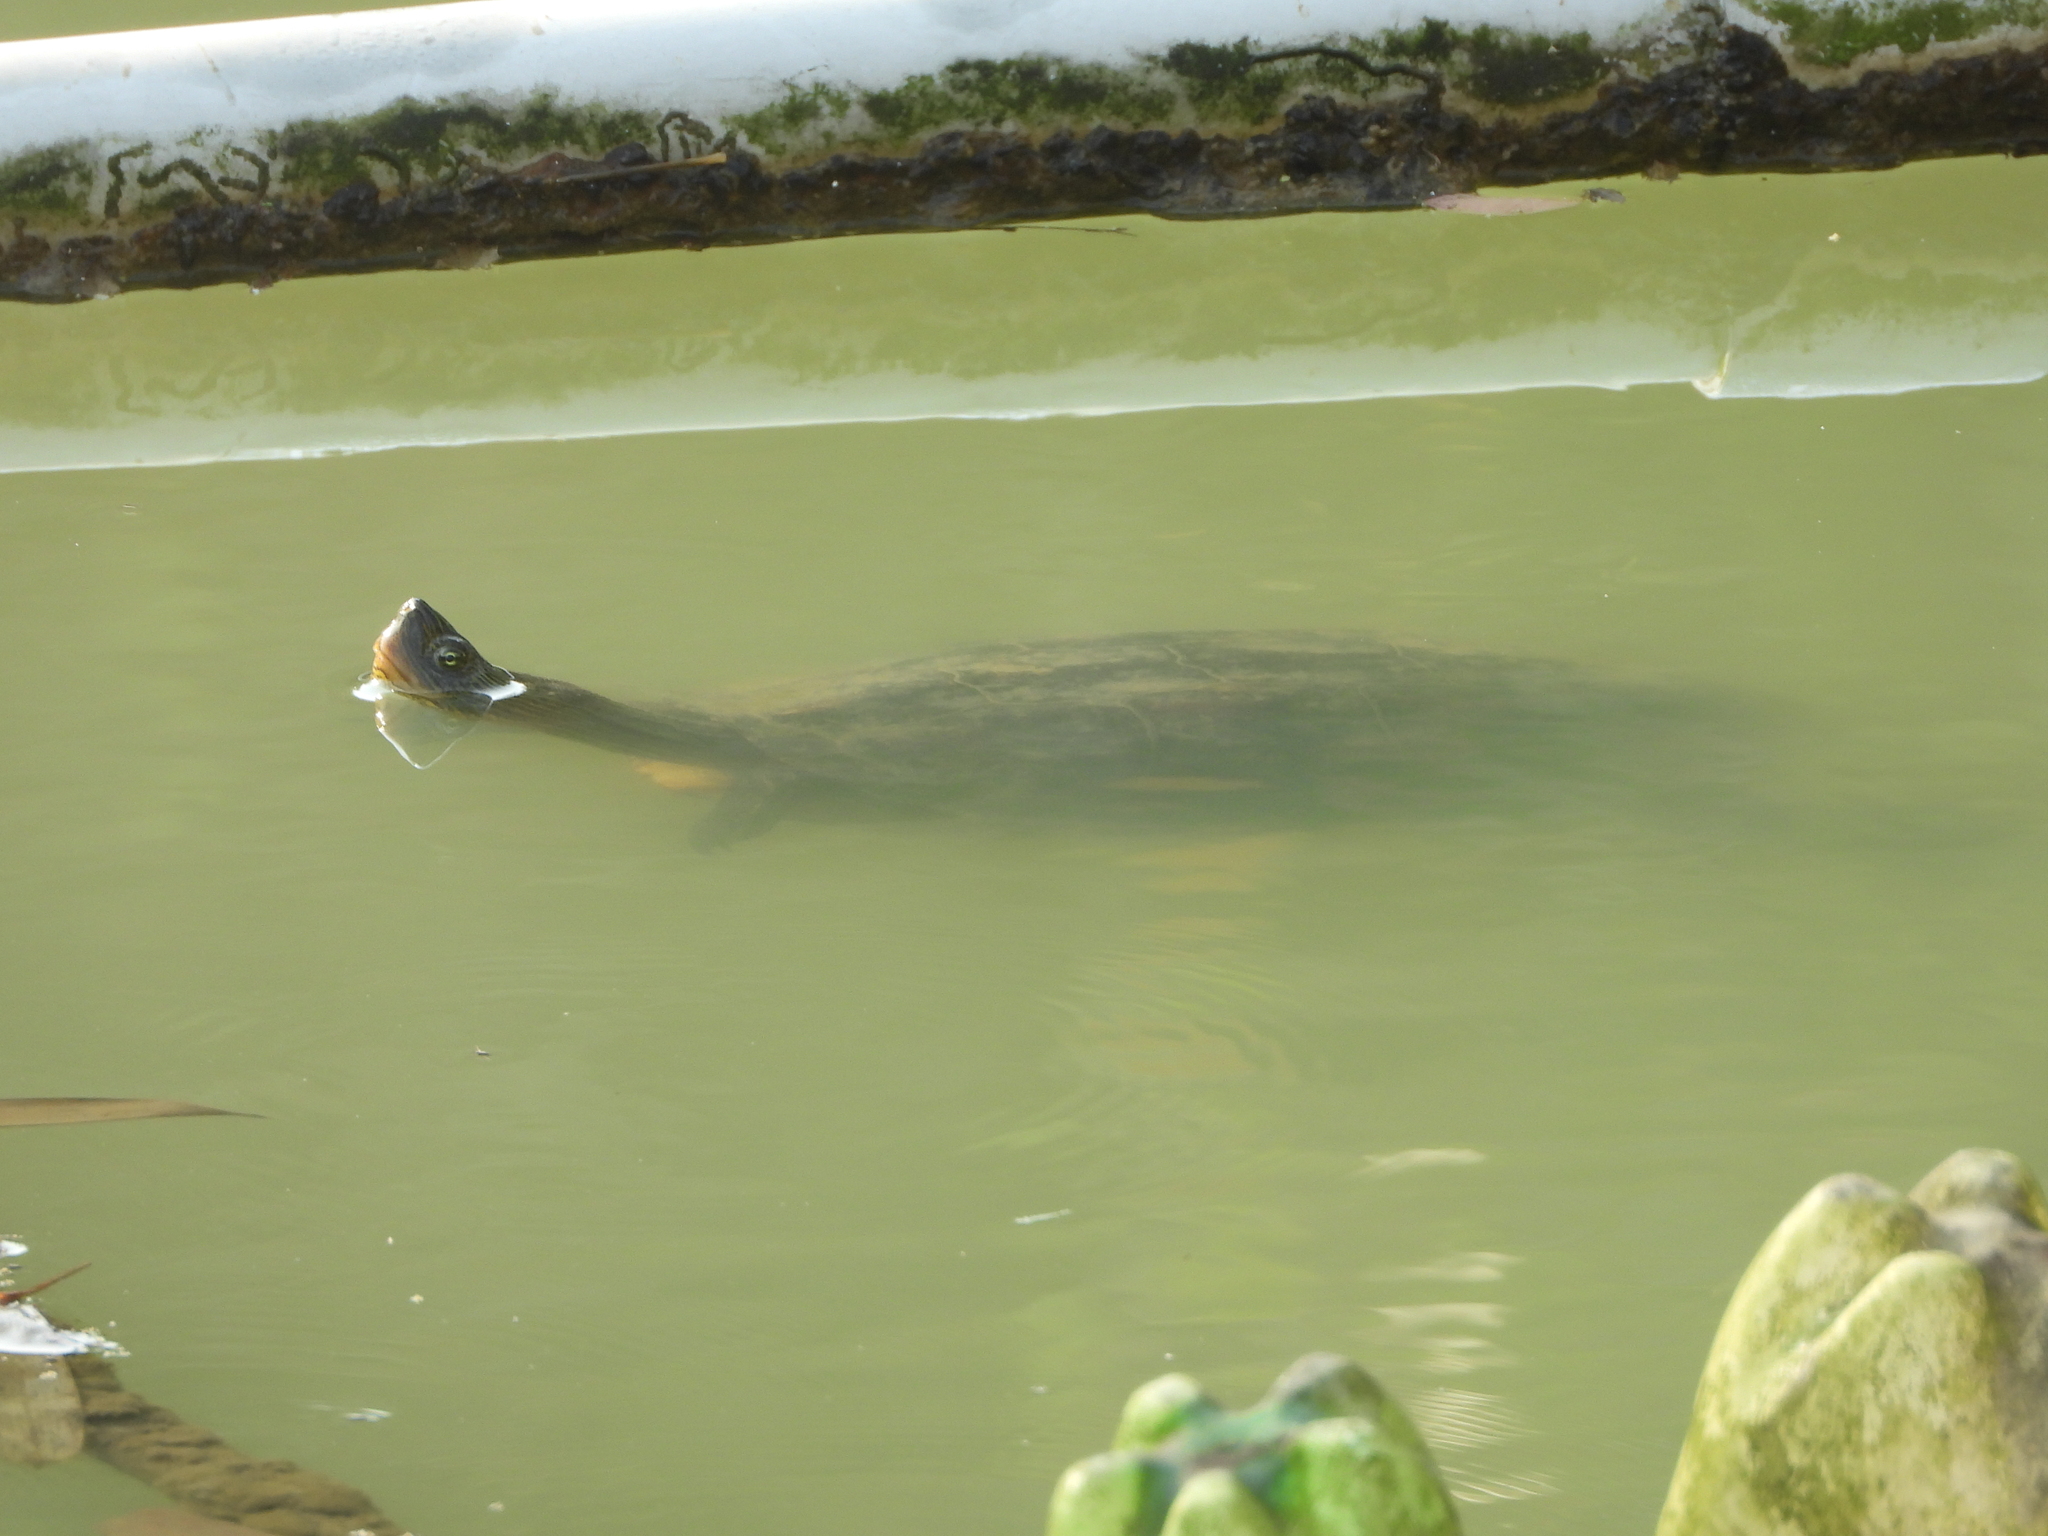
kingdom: Animalia
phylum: Chordata
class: Testudines
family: Geoemydidae
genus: Mauremys
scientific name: Mauremys sinensis
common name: Chinese stripe-necked turtle
